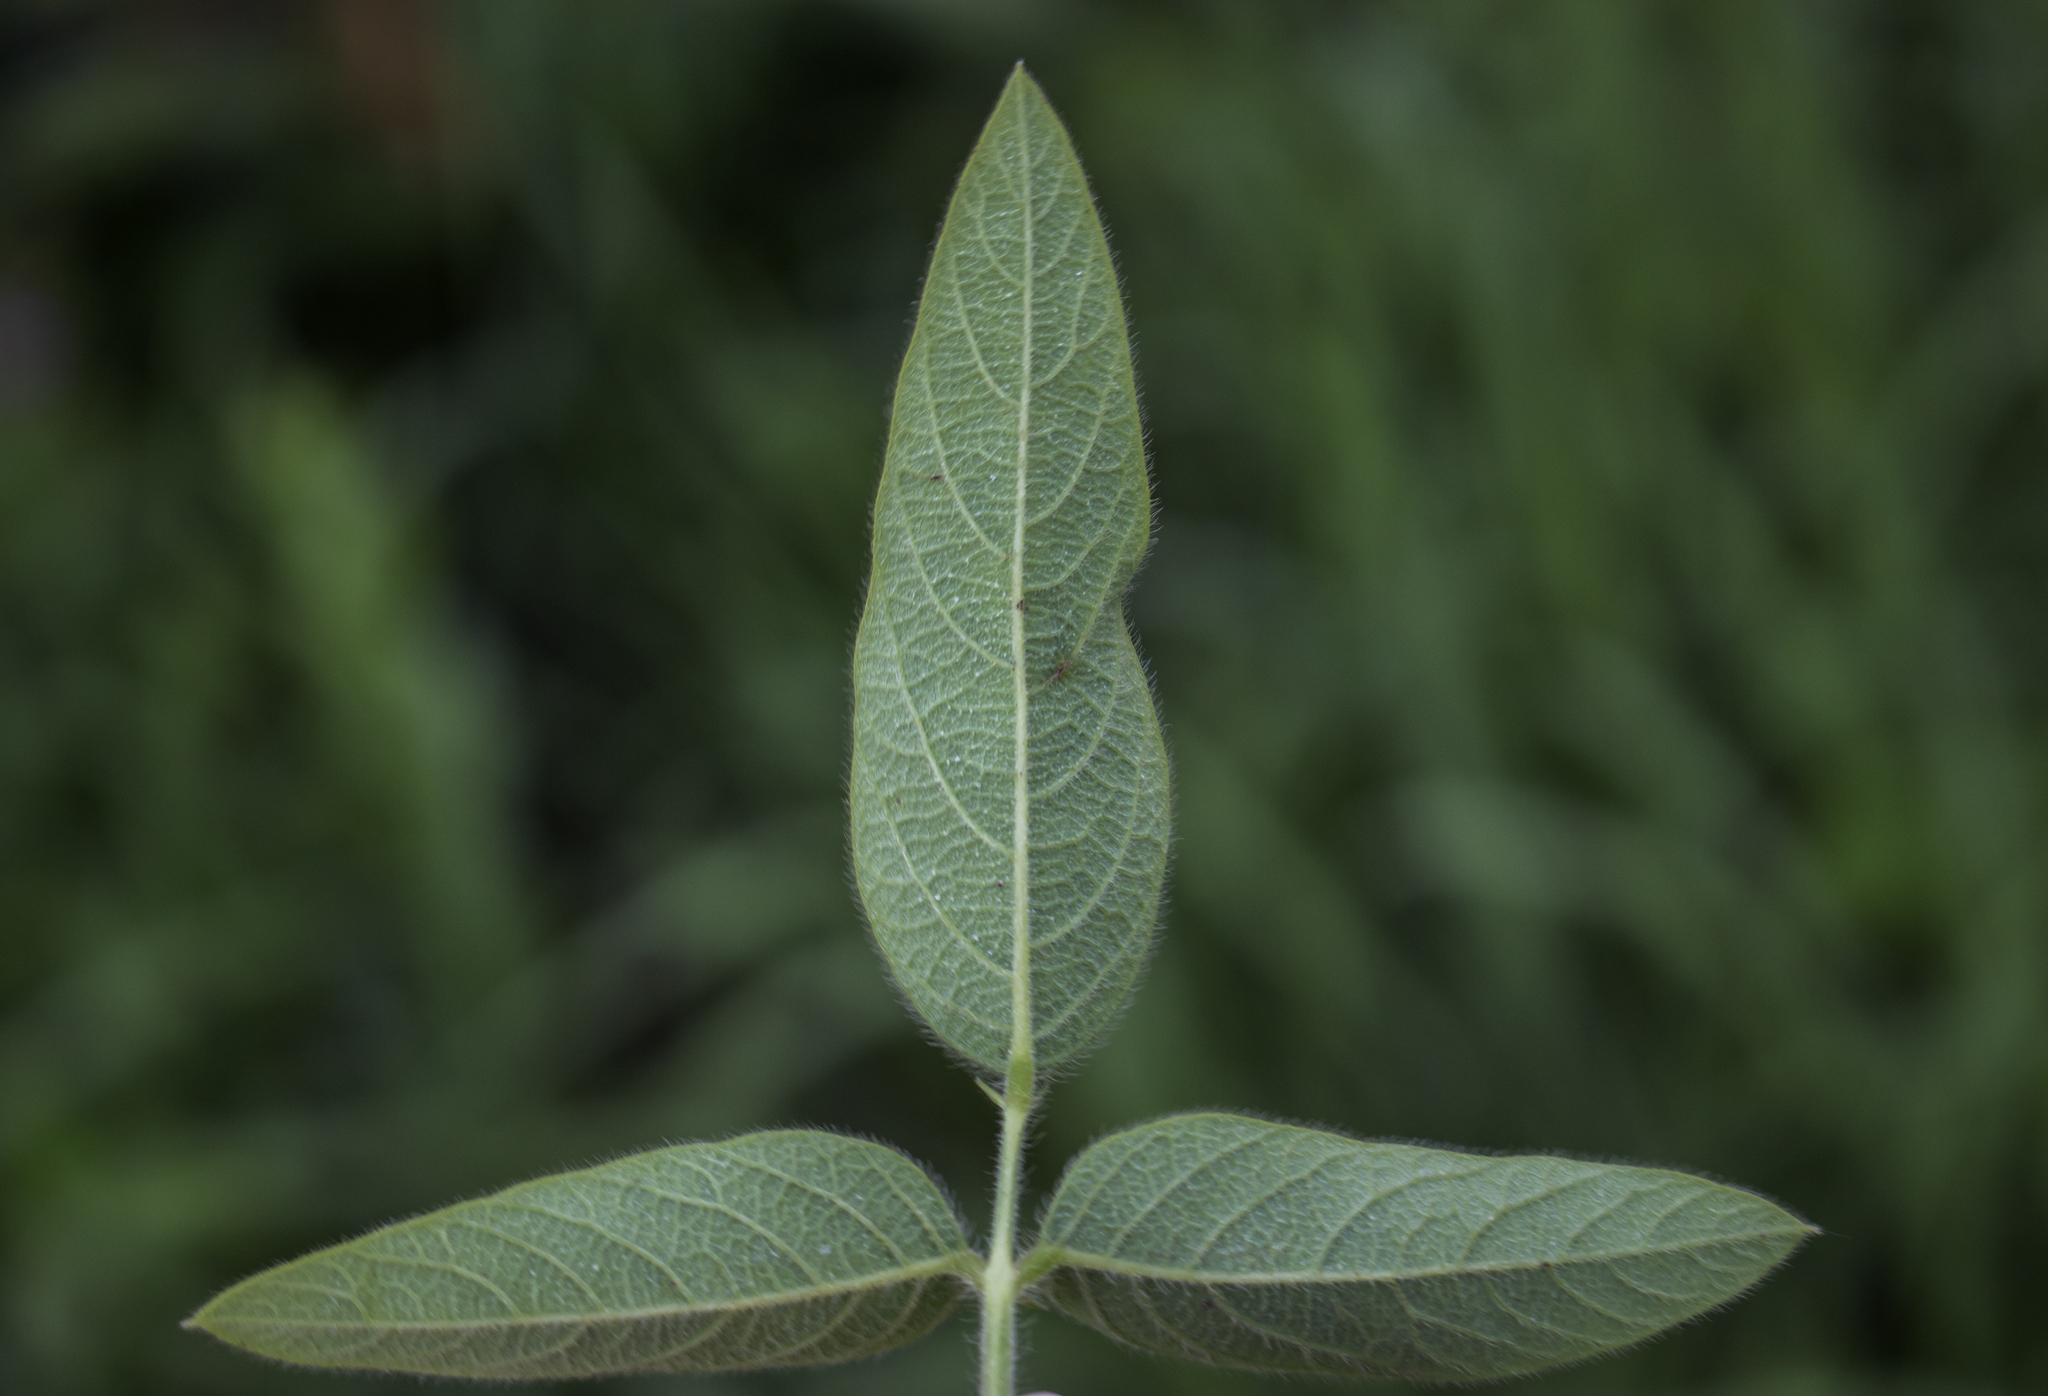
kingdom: Plantae
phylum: Tracheophyta
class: Magnoliopsida
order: Fabales
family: Fabaceae
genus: Desmodium
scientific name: Desmodium illinoense
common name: Illinois tick-clover
